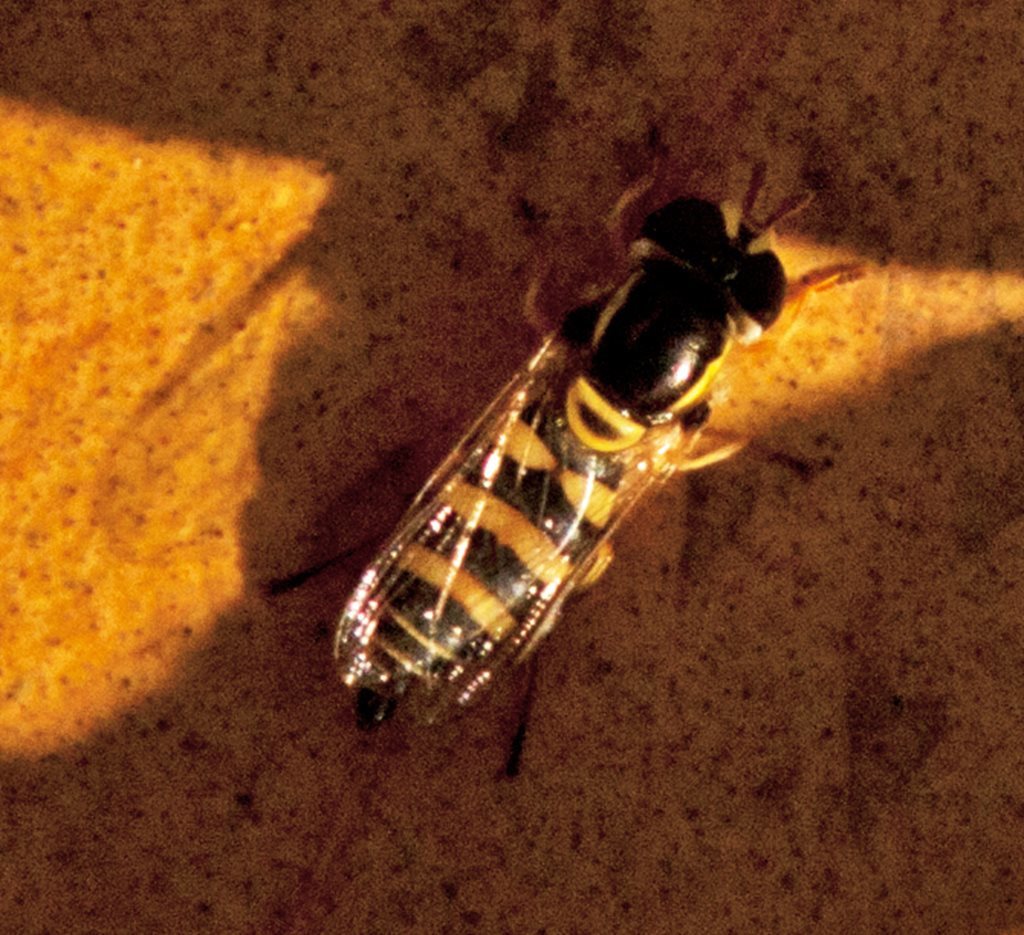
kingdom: Animalia
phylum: Arthropoda
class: Insecta
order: Diptera
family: Syrphidae
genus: Ischiodon
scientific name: Ischiodon scutellaris
